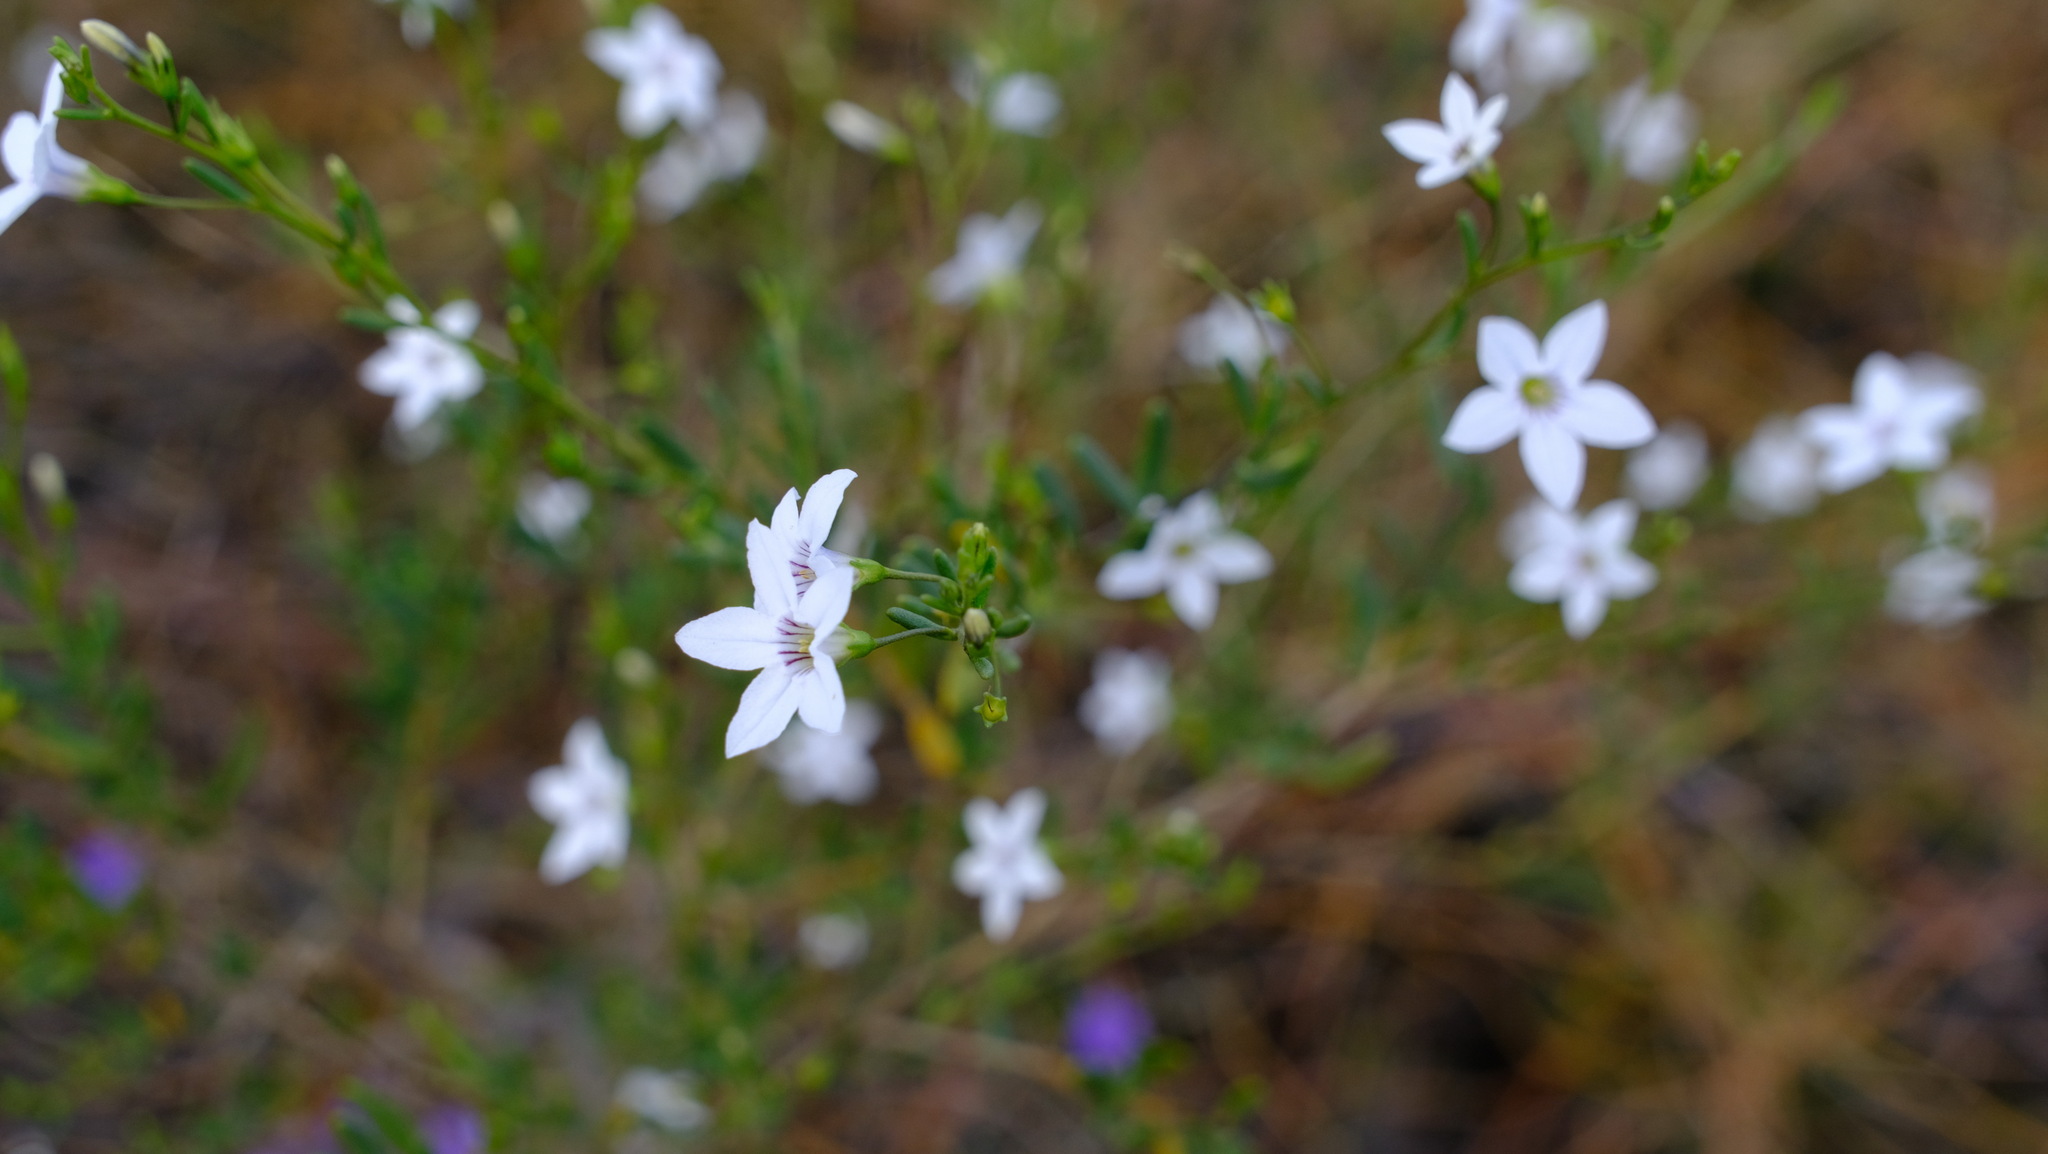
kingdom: Plantae
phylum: Tracheophyta
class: Magnoliopsida
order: Solanales
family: Solanaceae
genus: Cyphanthera
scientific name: Cyphanthera racemosa
